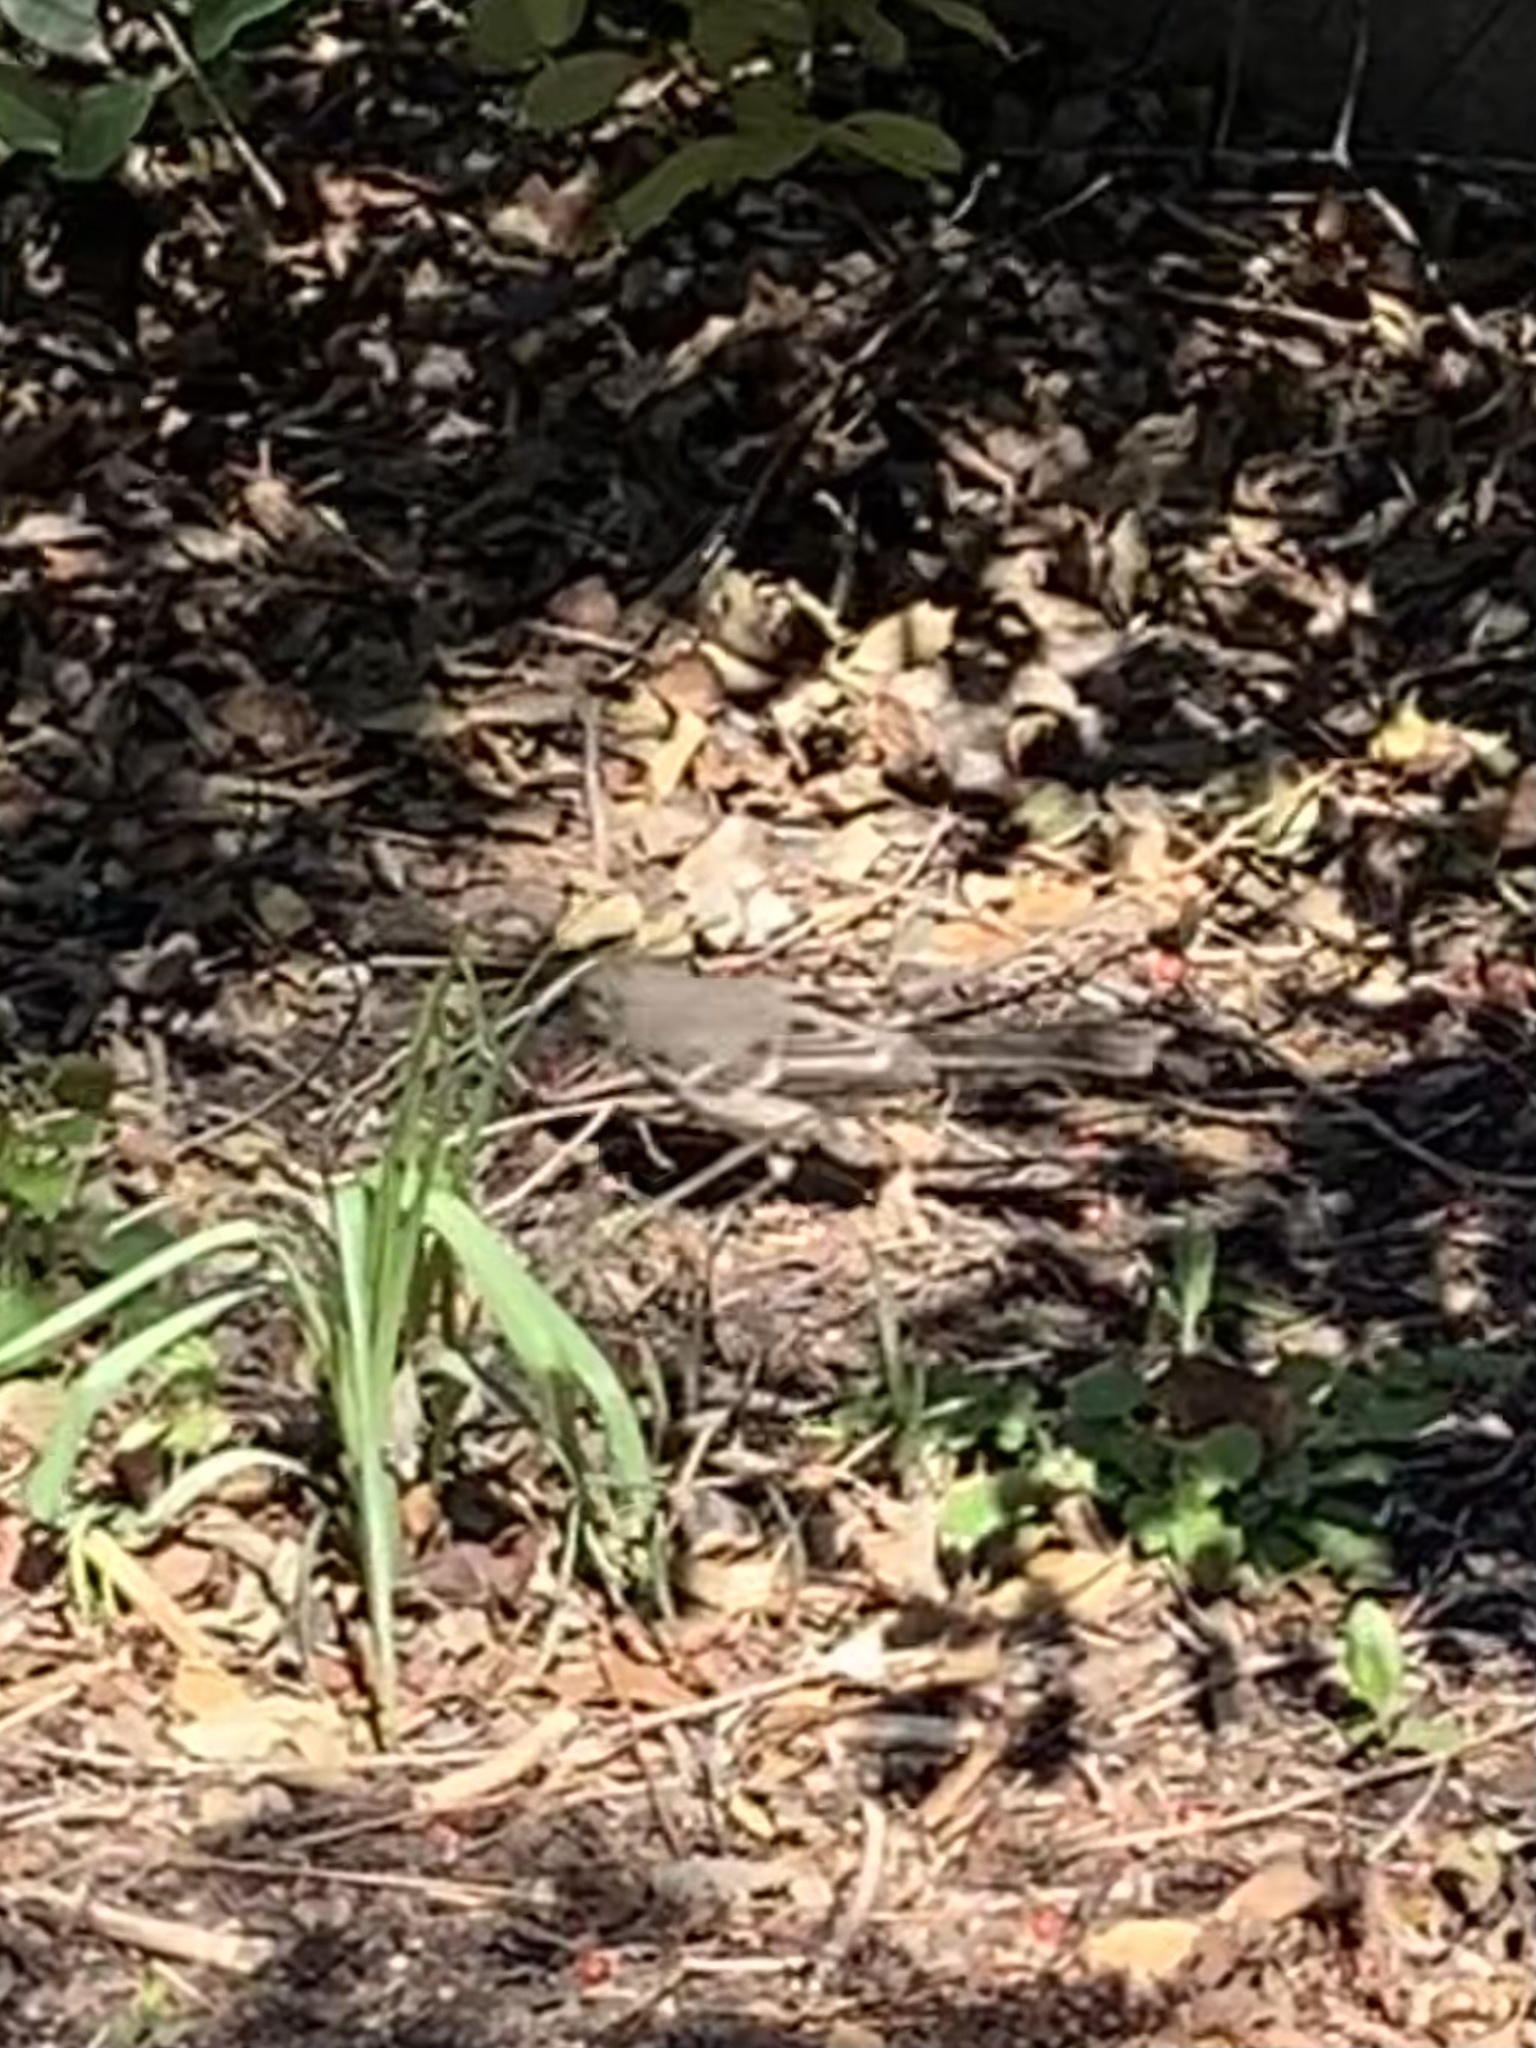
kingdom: Animalia
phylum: Chordata
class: Aves
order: Passeriformes
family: Mimidae
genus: Mimus
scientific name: Mimus polyglottos
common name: Northern mockingbird
